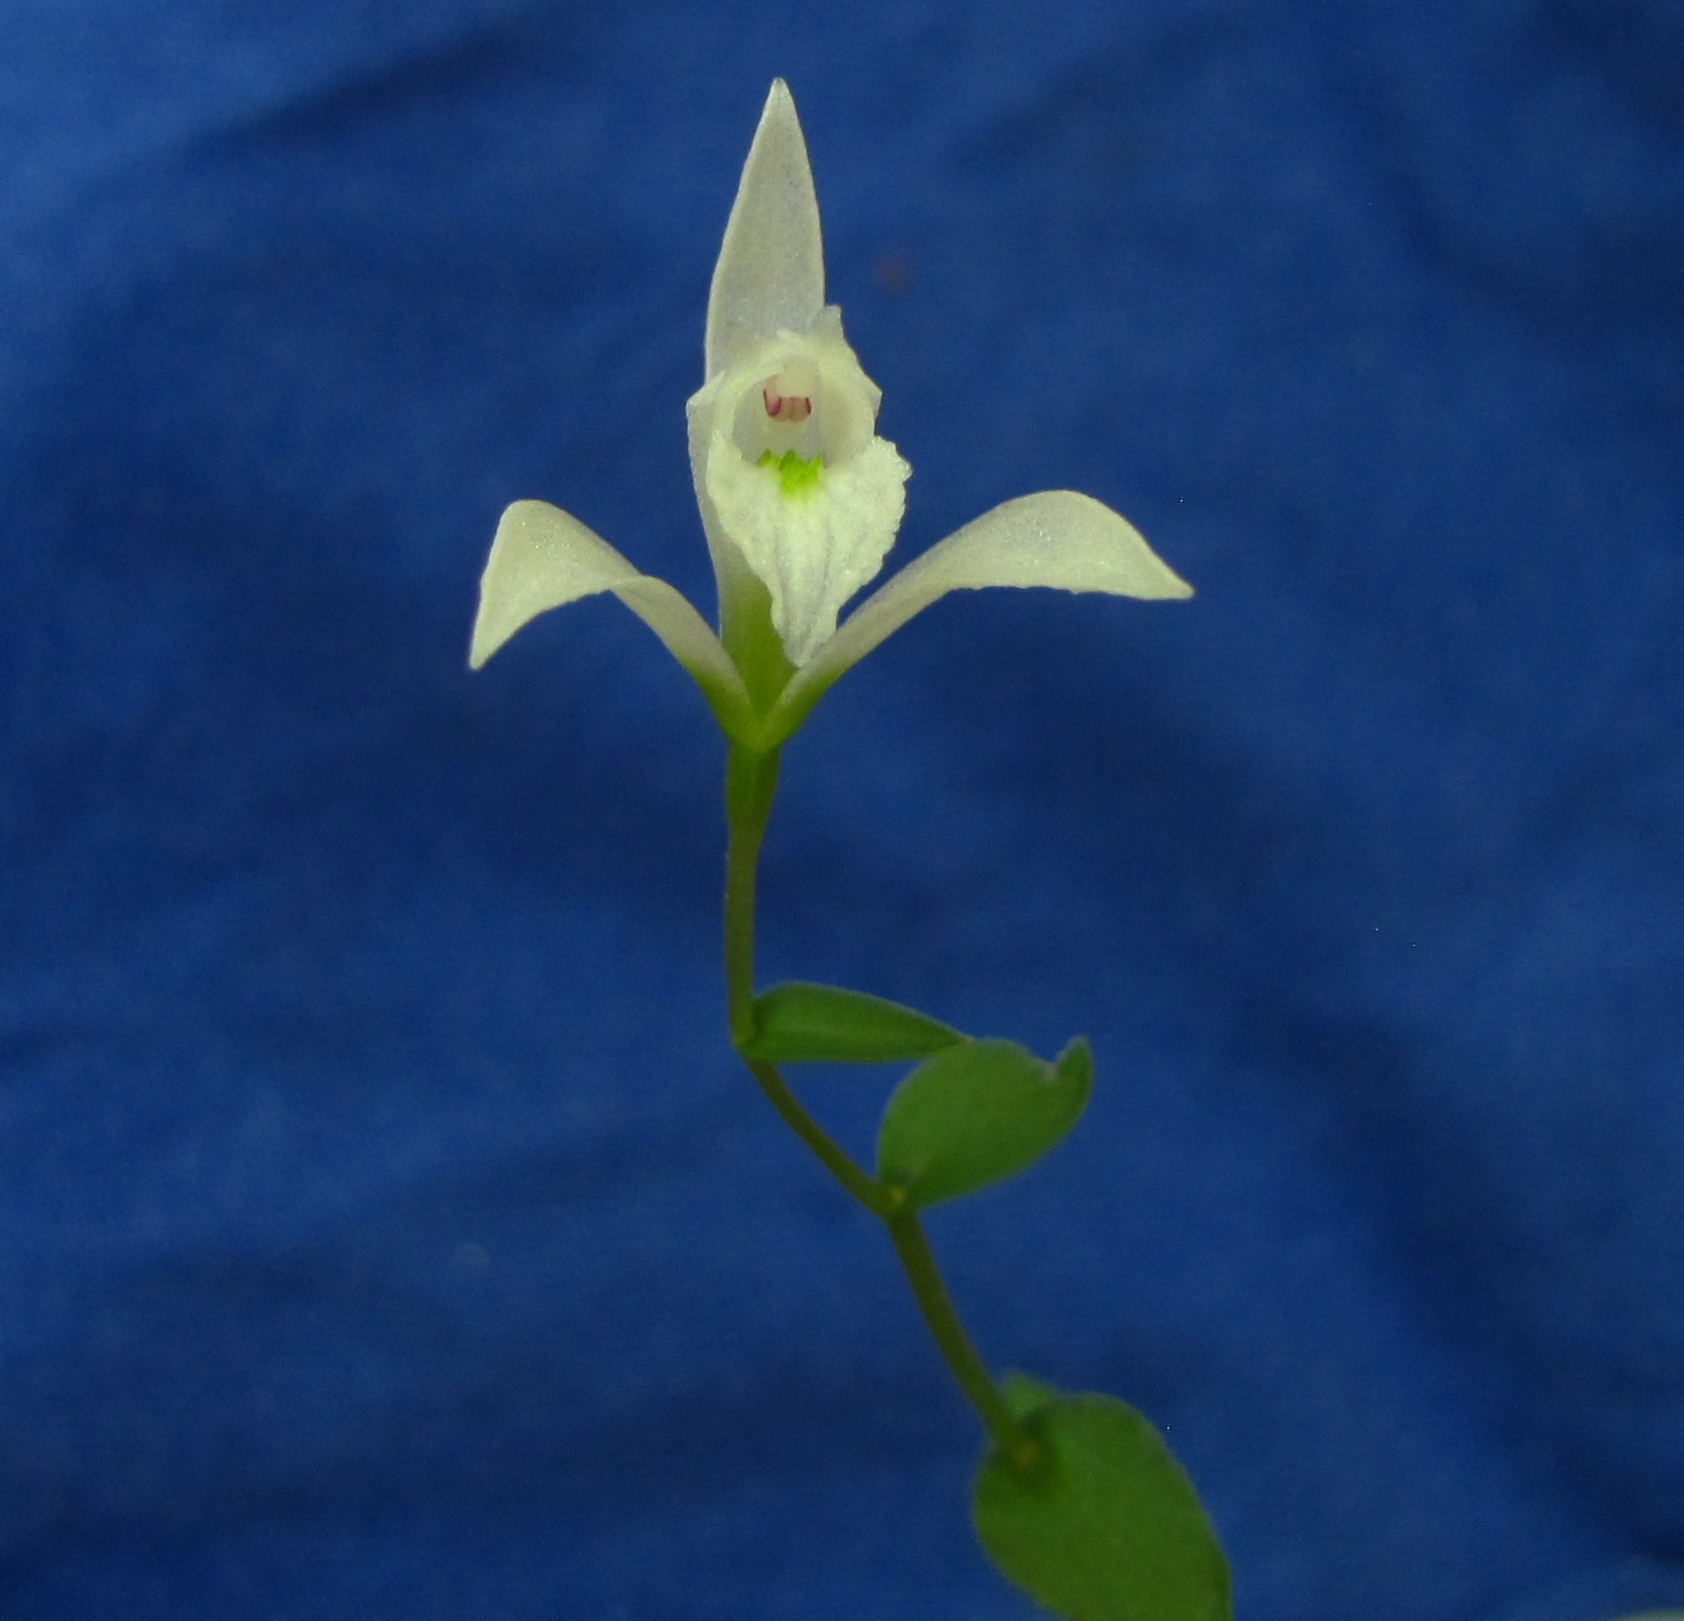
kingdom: Plantae
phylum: Tracheophyta
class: Liliopsida
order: Asparagales
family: Orchidaceae
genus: Triphora
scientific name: Triphora trianthophoros
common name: Three birds orchid
